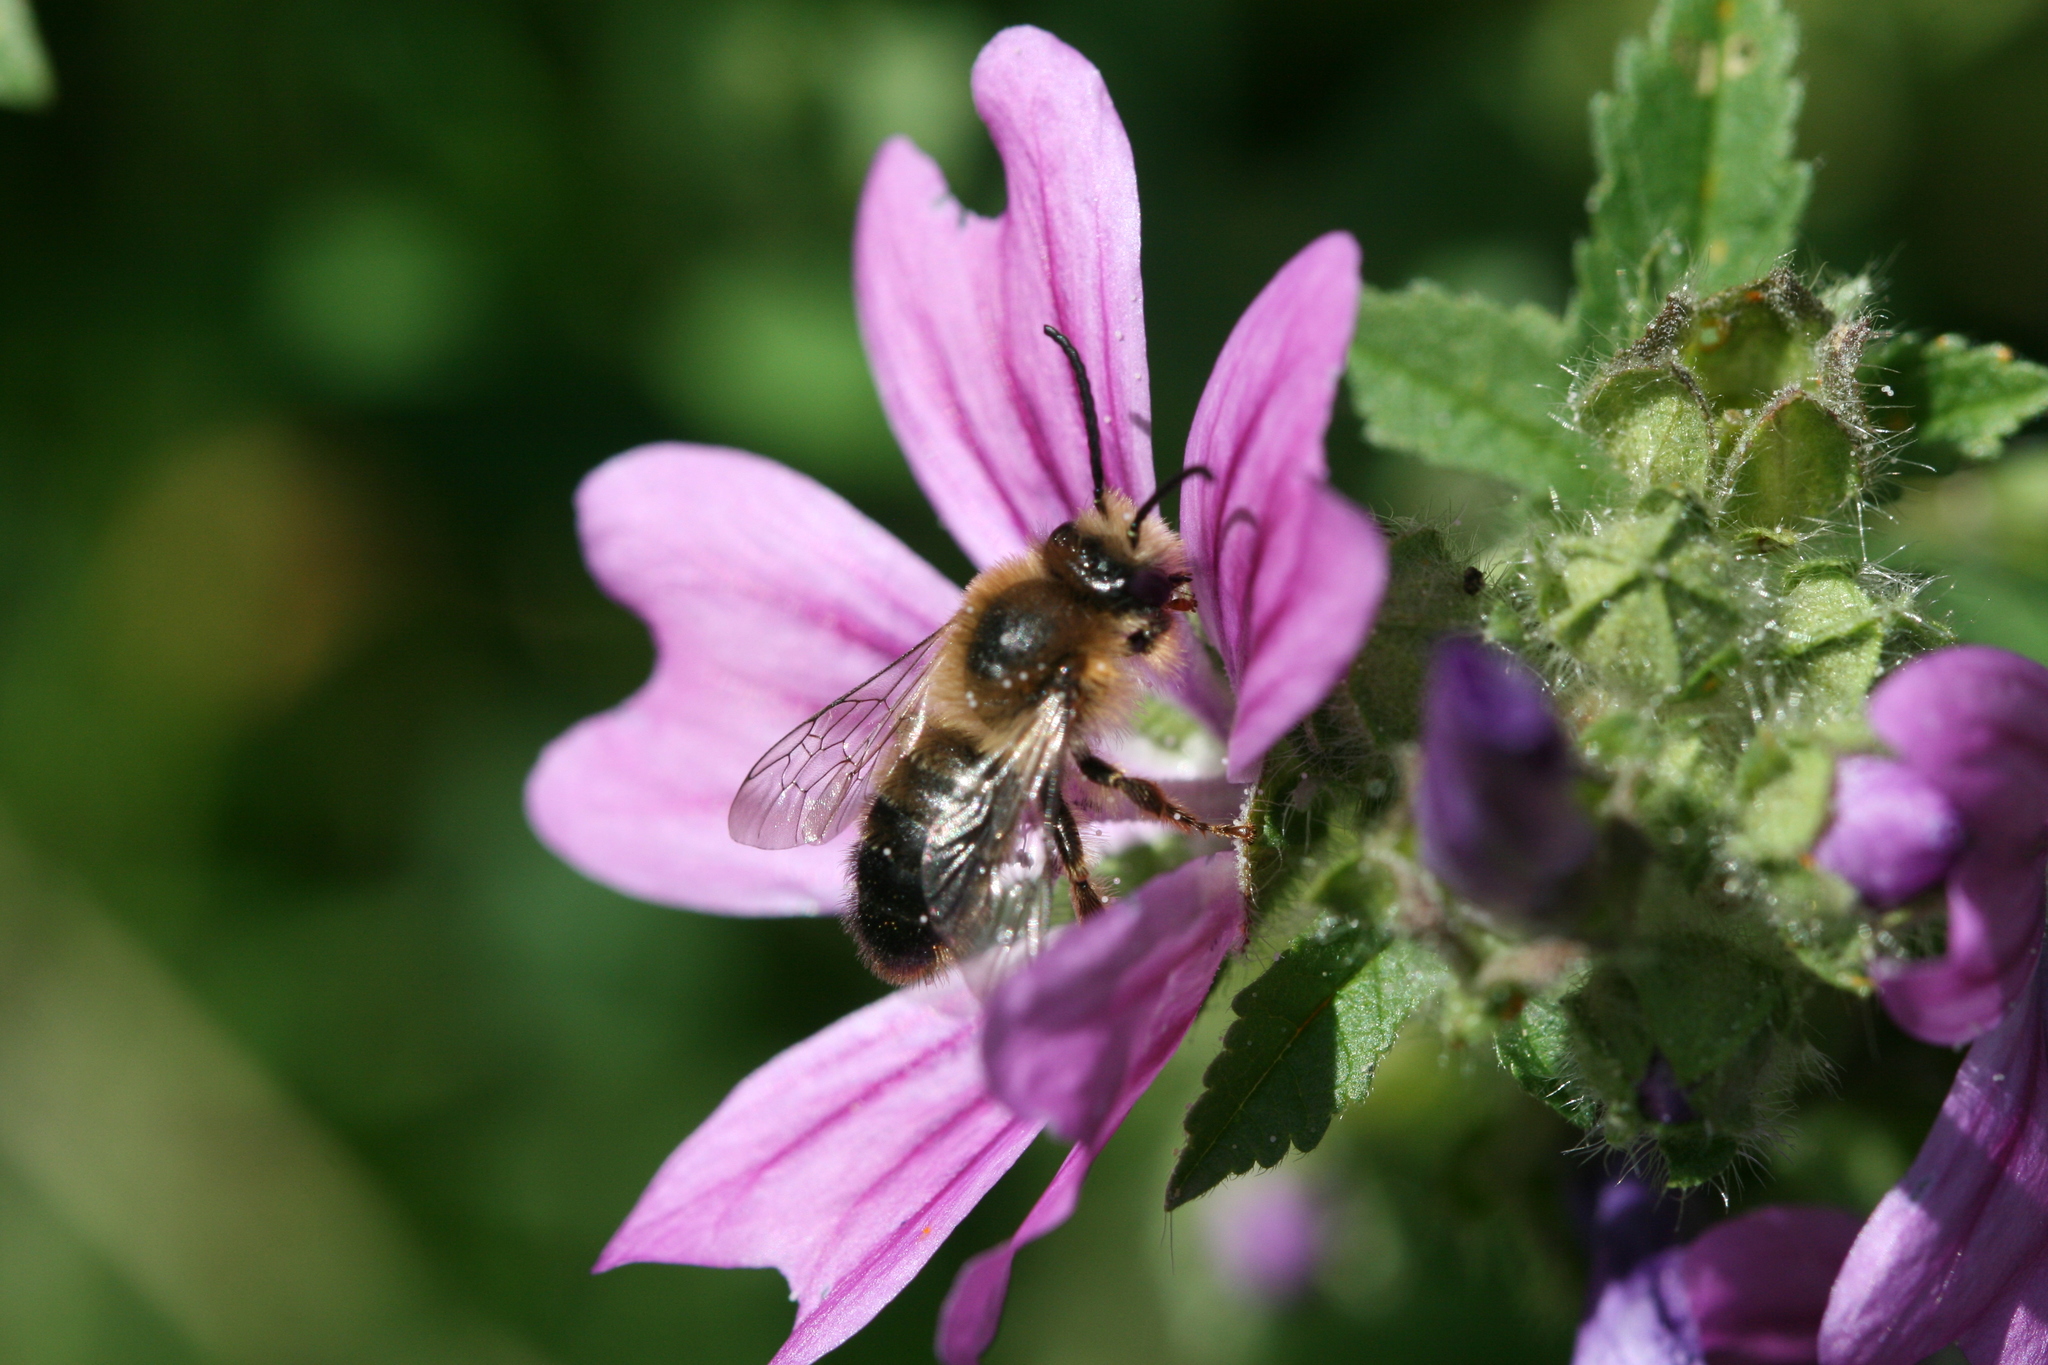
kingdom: Animalia
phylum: Arthropoda
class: Insecta
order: Hymenoptera
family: Melittidae
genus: Melitta
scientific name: Melitta haemorrhoidalis
